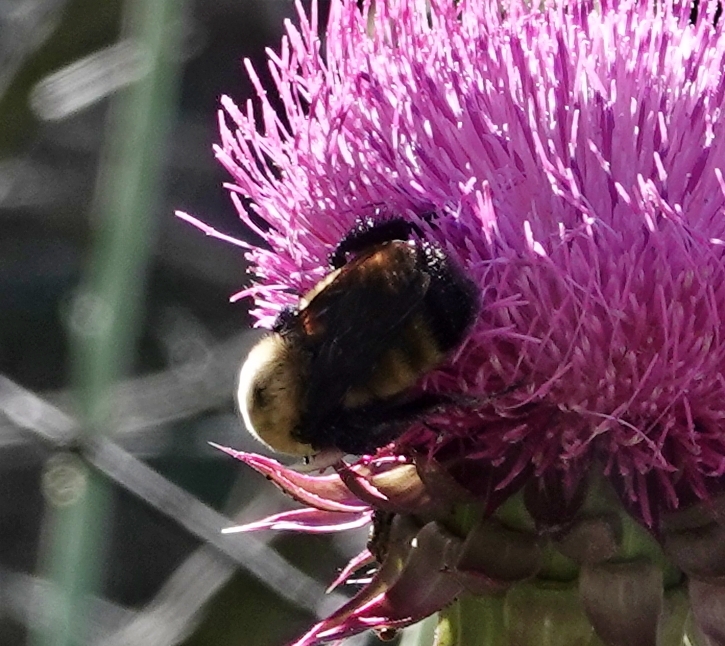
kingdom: Animalia
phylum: Arthropoda
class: Insecta
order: Hymenoptera
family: Apidae
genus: Bombus
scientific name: Bombus nevadensis
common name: Nevada bumble bee
